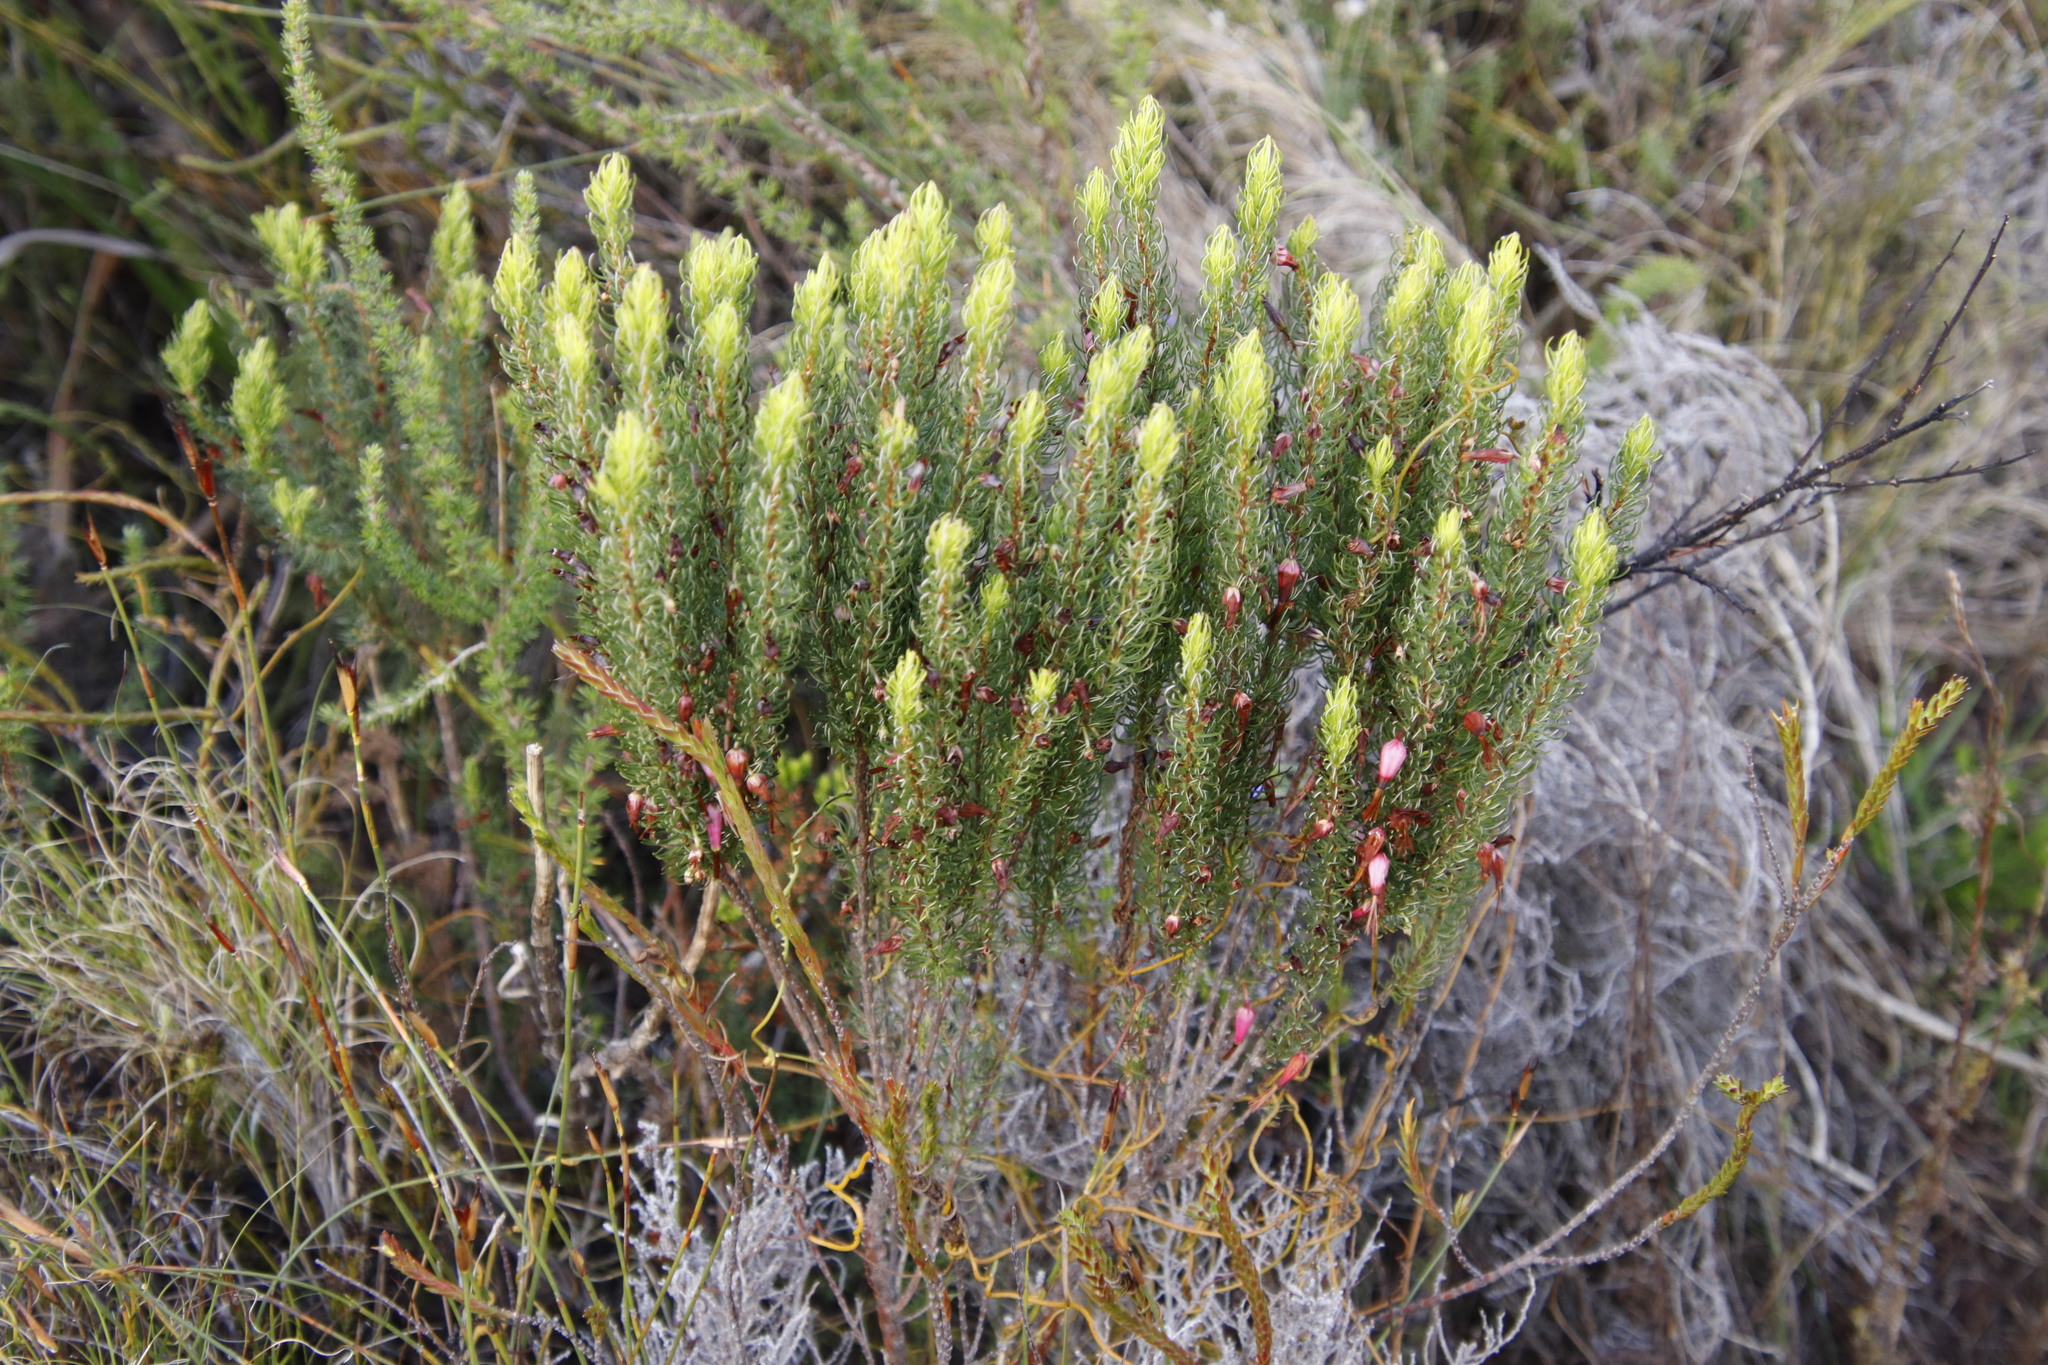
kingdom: Plantae
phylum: Tracheophyta
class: Magnoliopsida
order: Ericales
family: Ericaceae
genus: Erica
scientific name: Erica plukenetii
